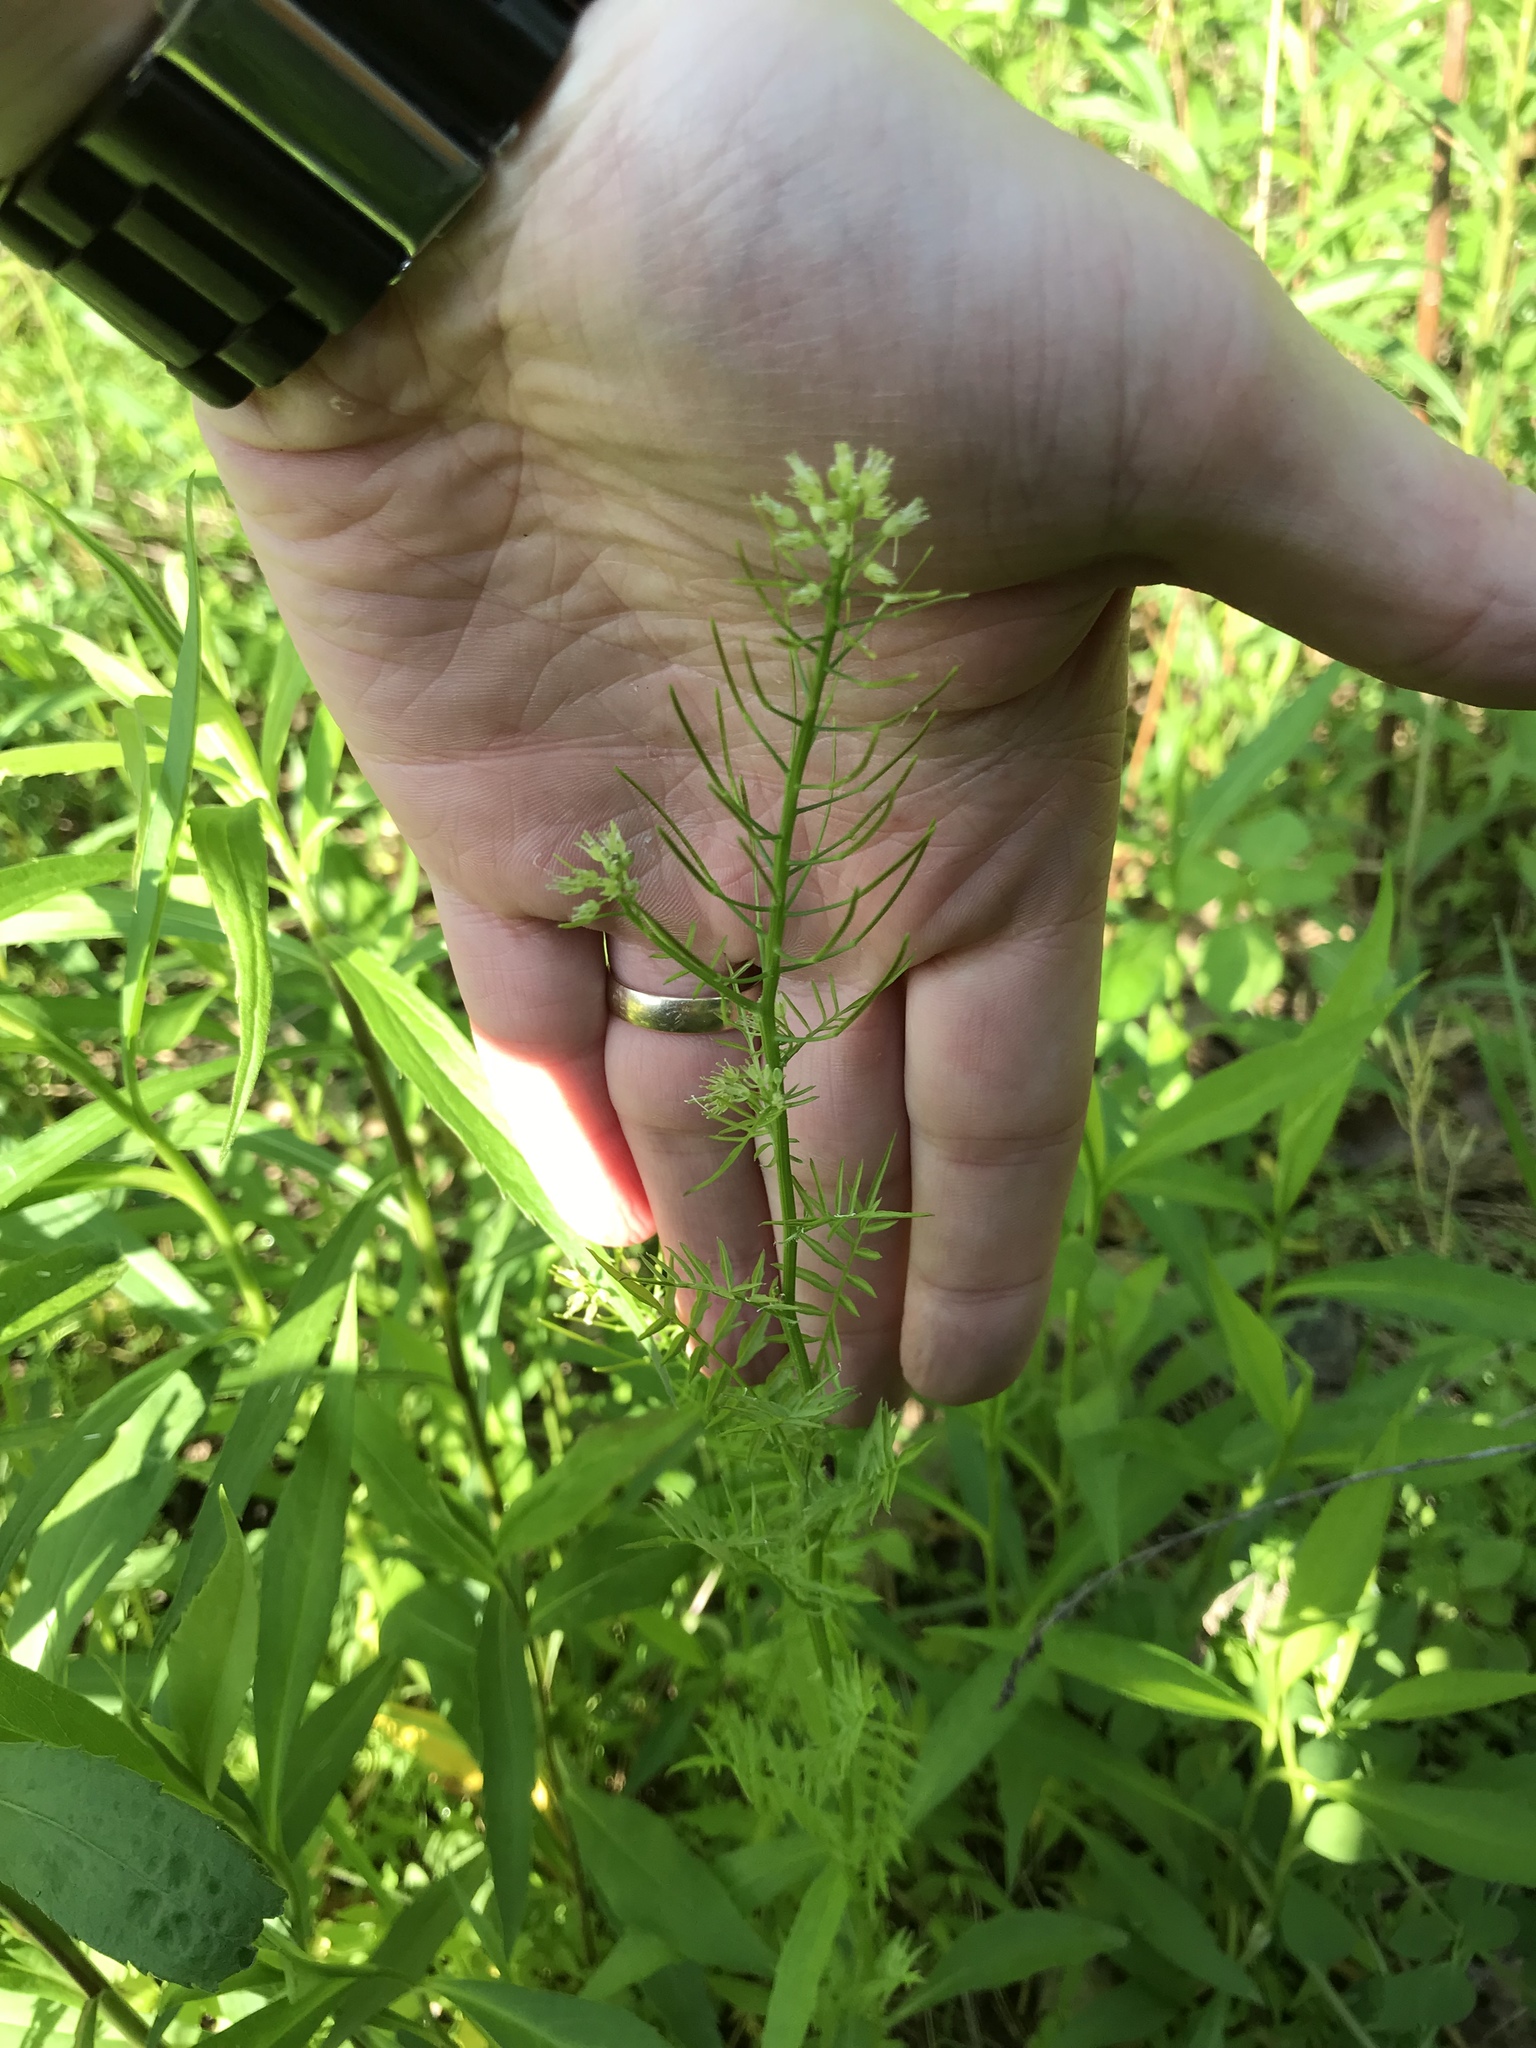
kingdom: Plantae
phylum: Tracheophyta
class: Magnoliopsida
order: Brassicales
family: Brassicaceae
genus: Cardamine
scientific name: Cardamine impatiens
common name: Narrow-leaved bitter-cress
